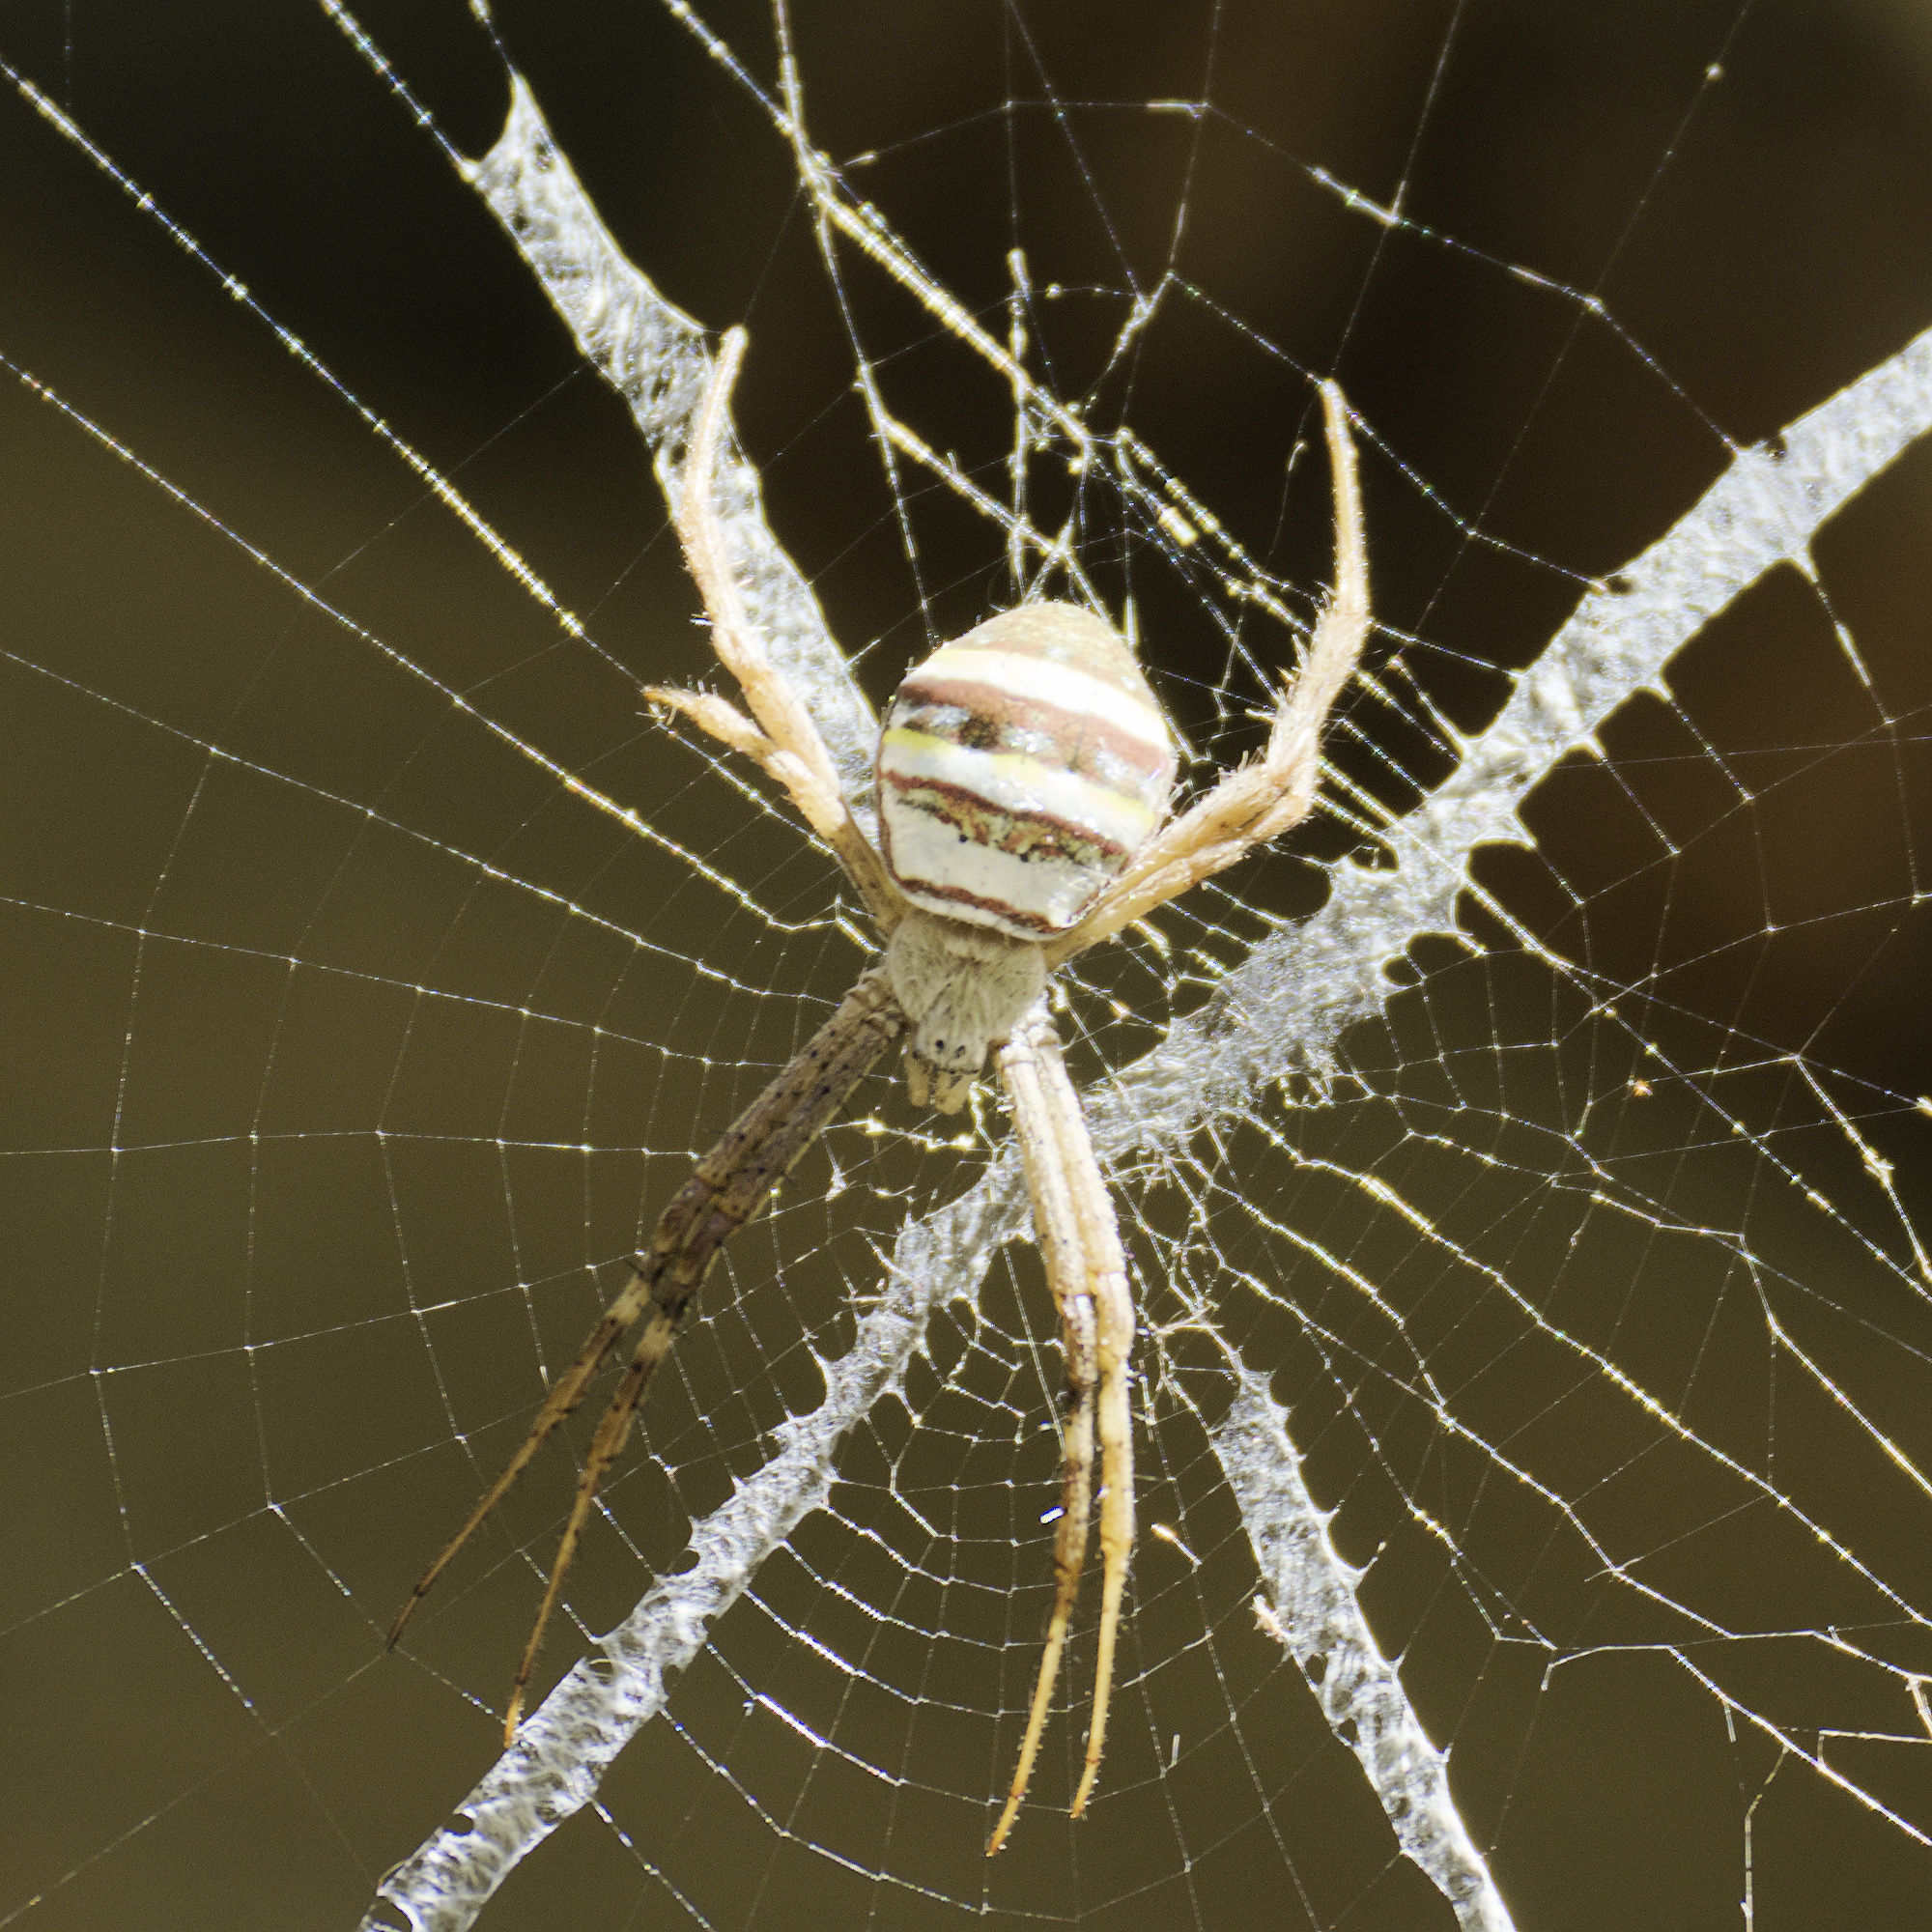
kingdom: Animalia
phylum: Arthropoda
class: Arachnida
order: Araneae
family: Araneidae
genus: Argiope
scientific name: Argiope keyserlingi
